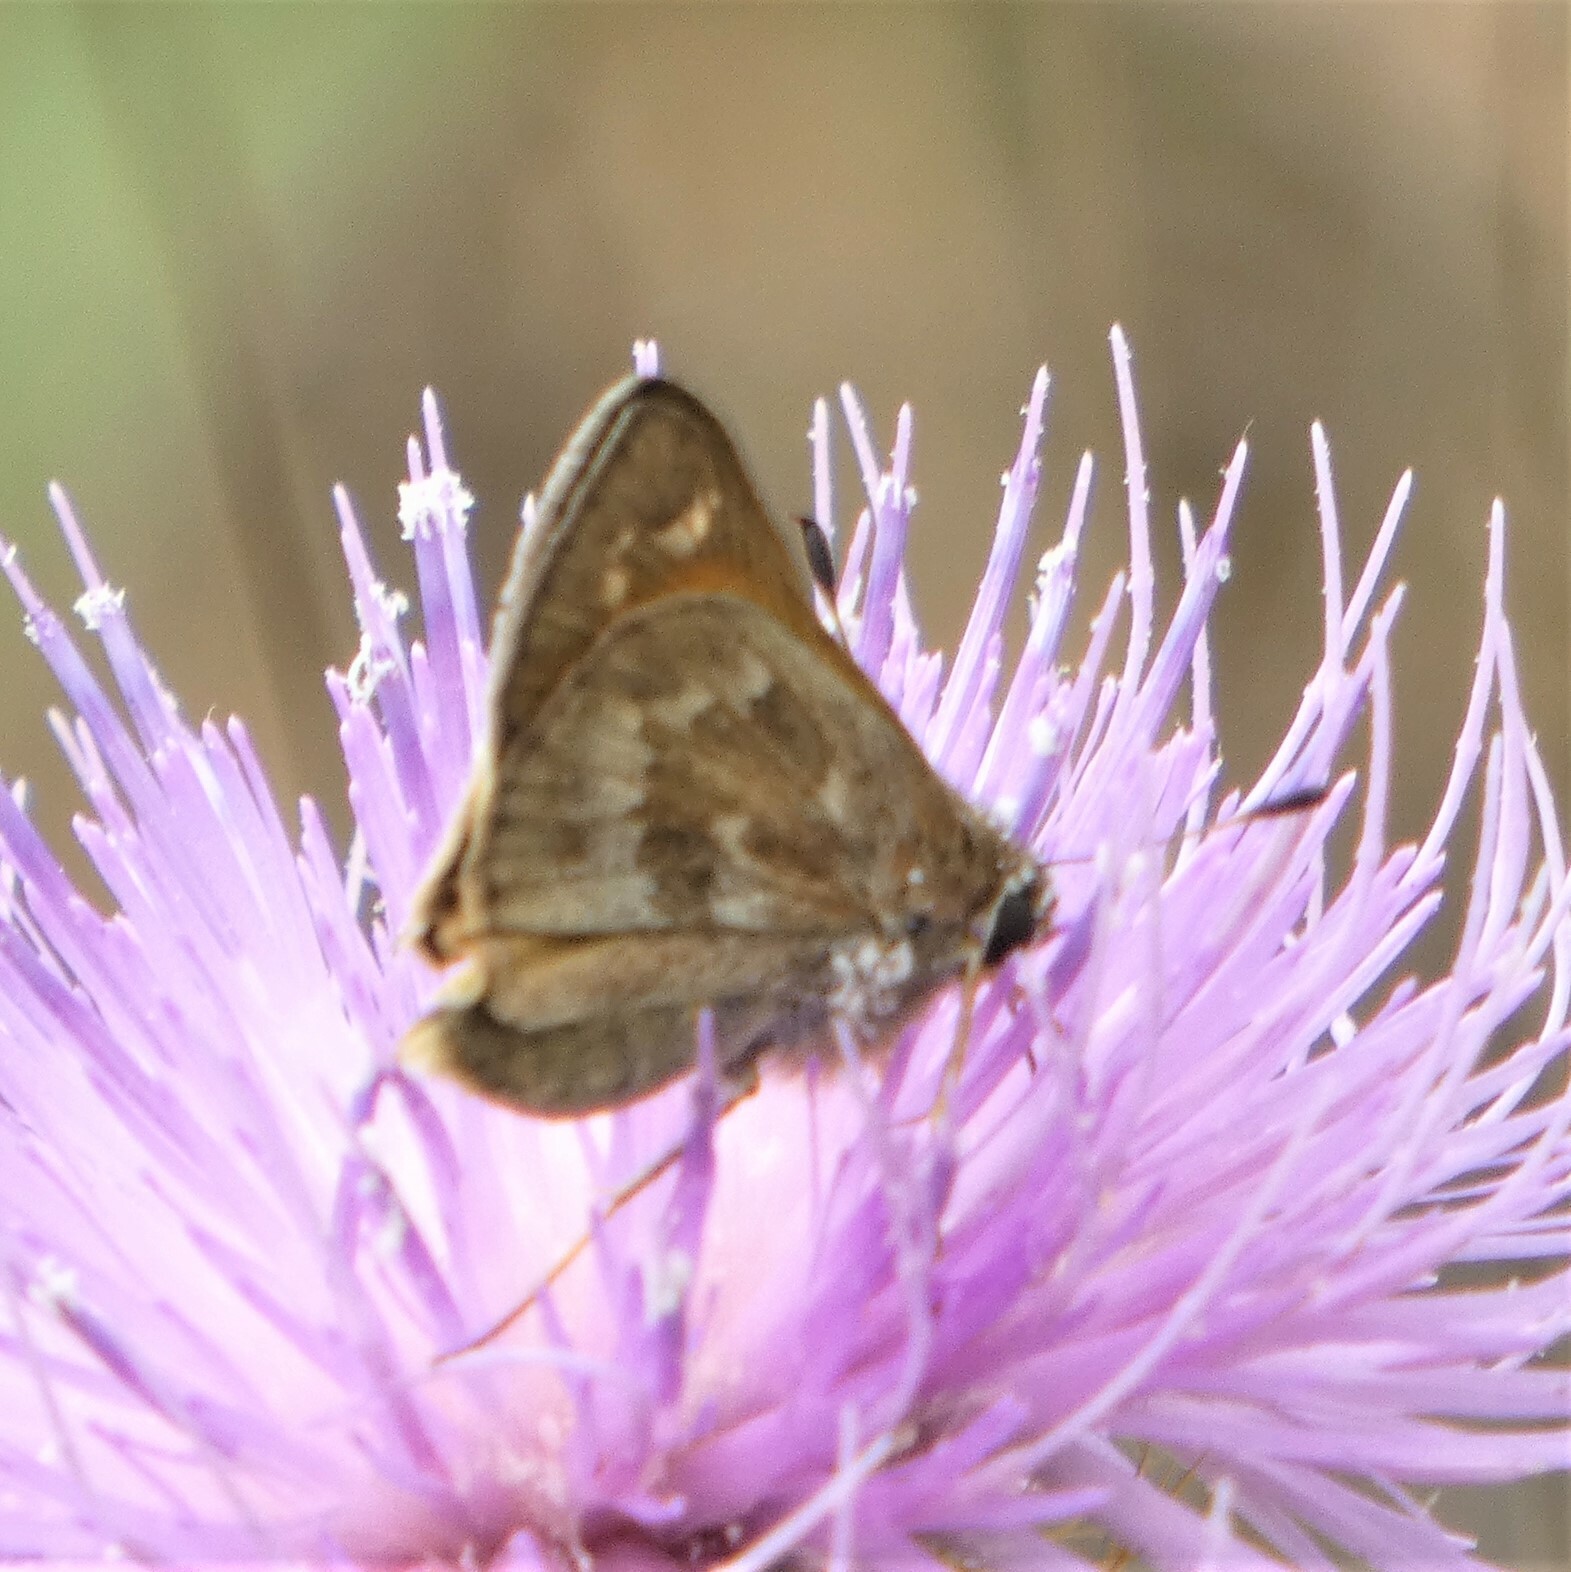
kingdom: Animalia
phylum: Arthropoda
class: Insecta
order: Lepidoptera
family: Hesperiidae
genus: Atalopedes
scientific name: Atalopedes
